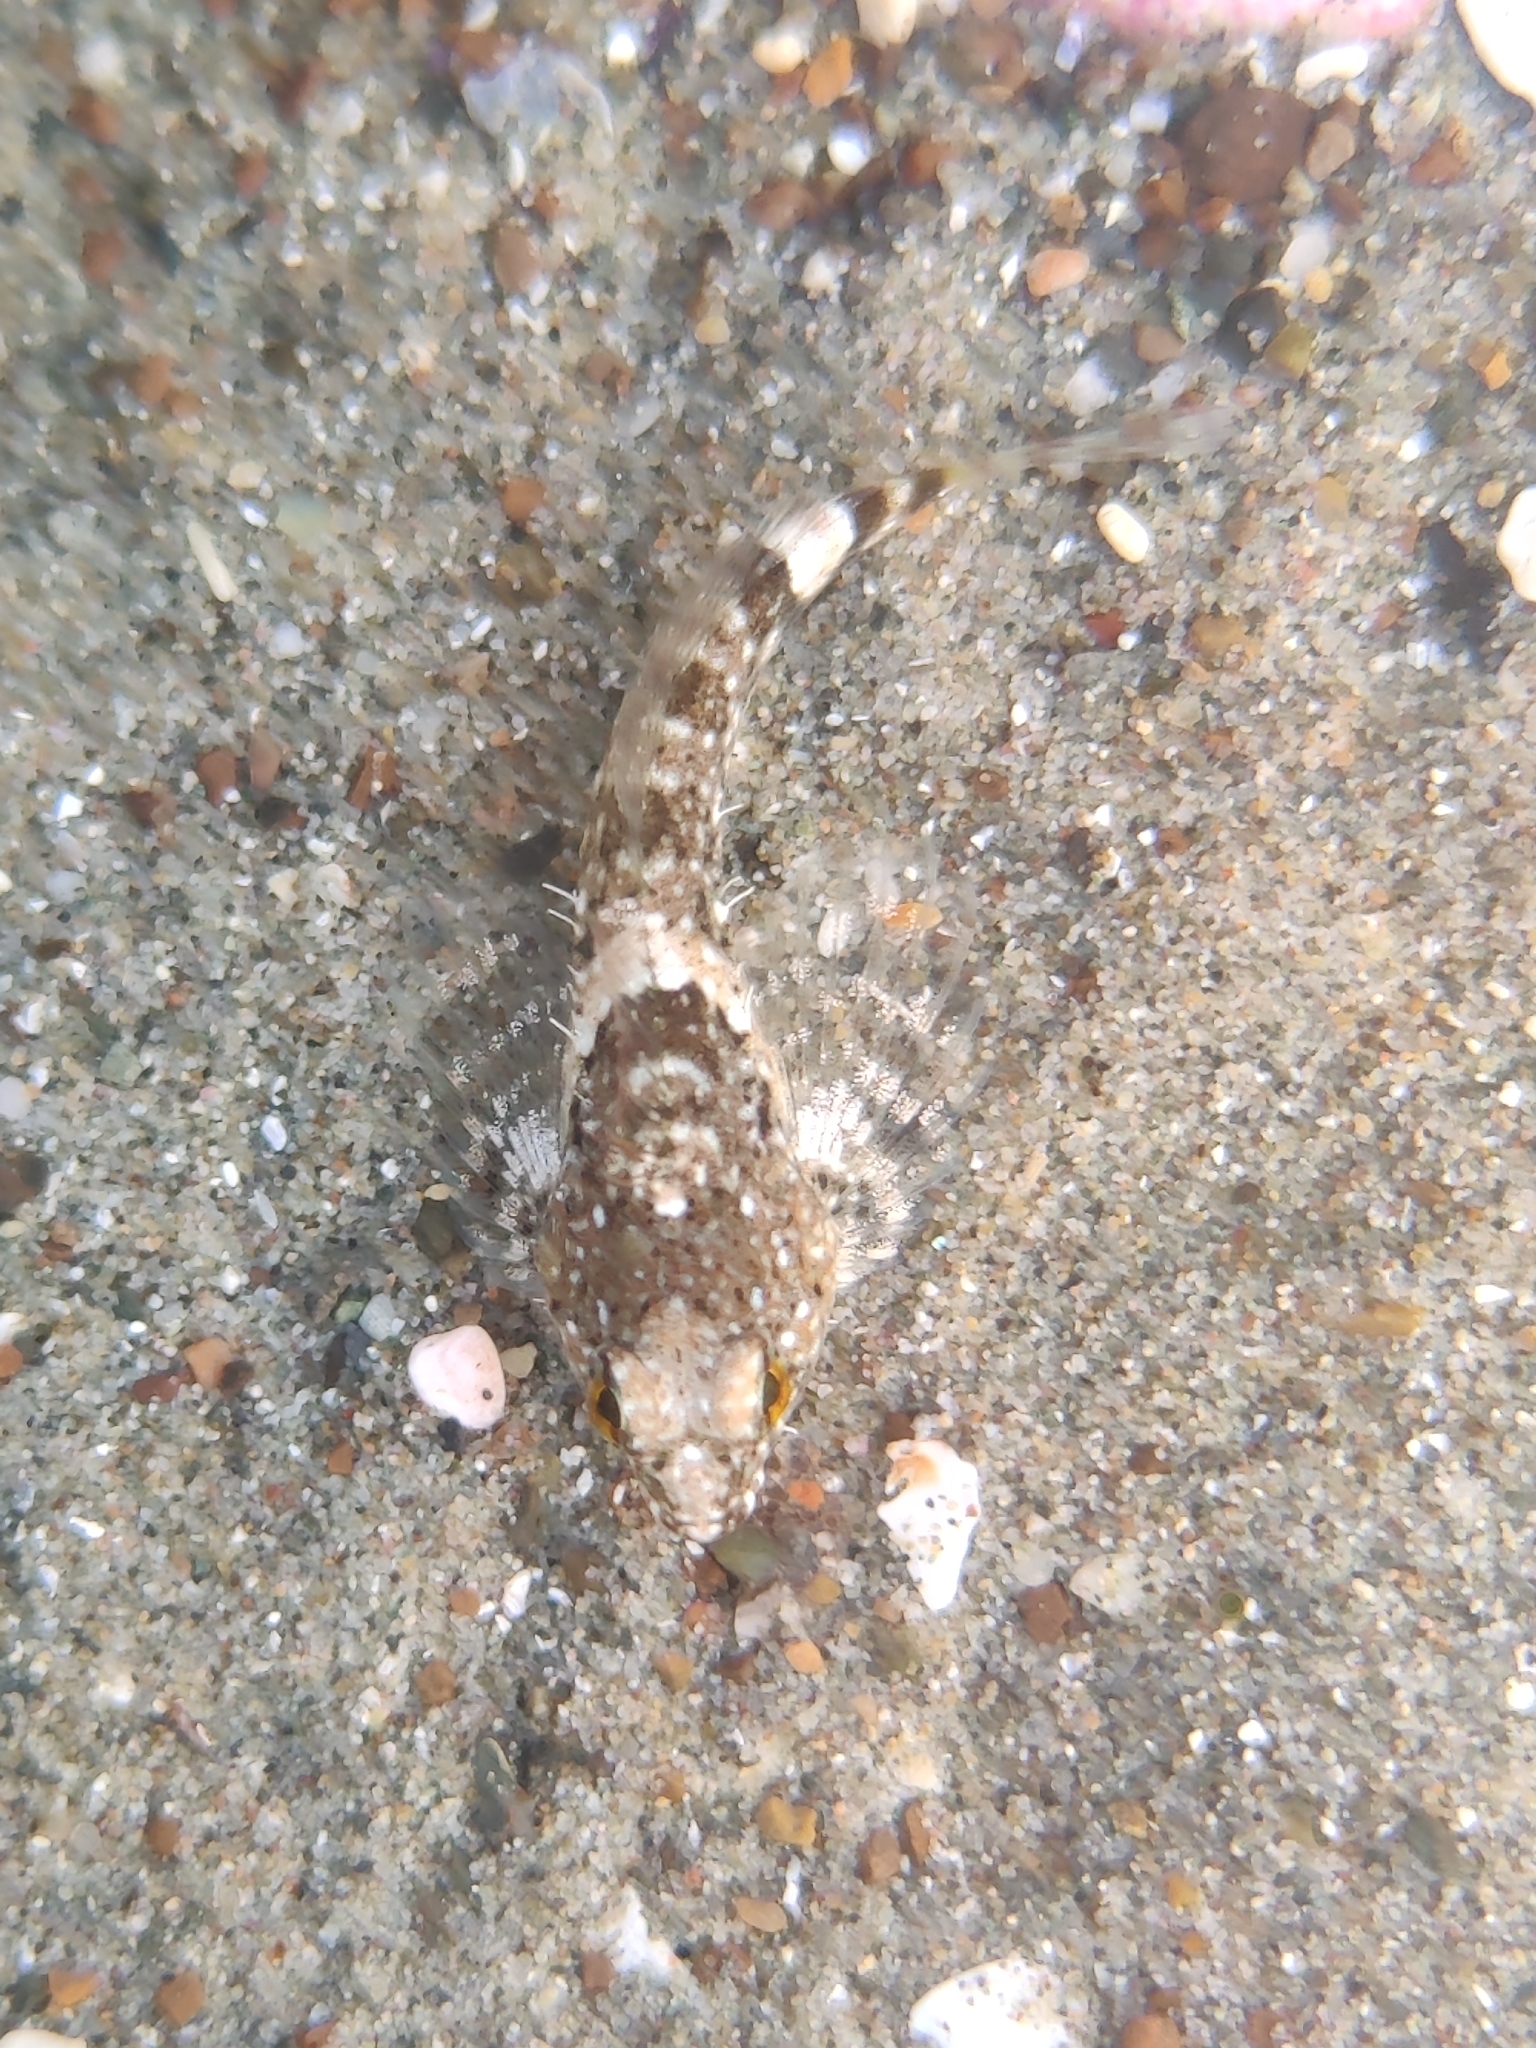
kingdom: Animalia
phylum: Chordata
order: Scorpaeniformes
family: Cottidae
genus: Clinocottus
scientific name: Clinocottus analis
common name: Woolly sculpin
